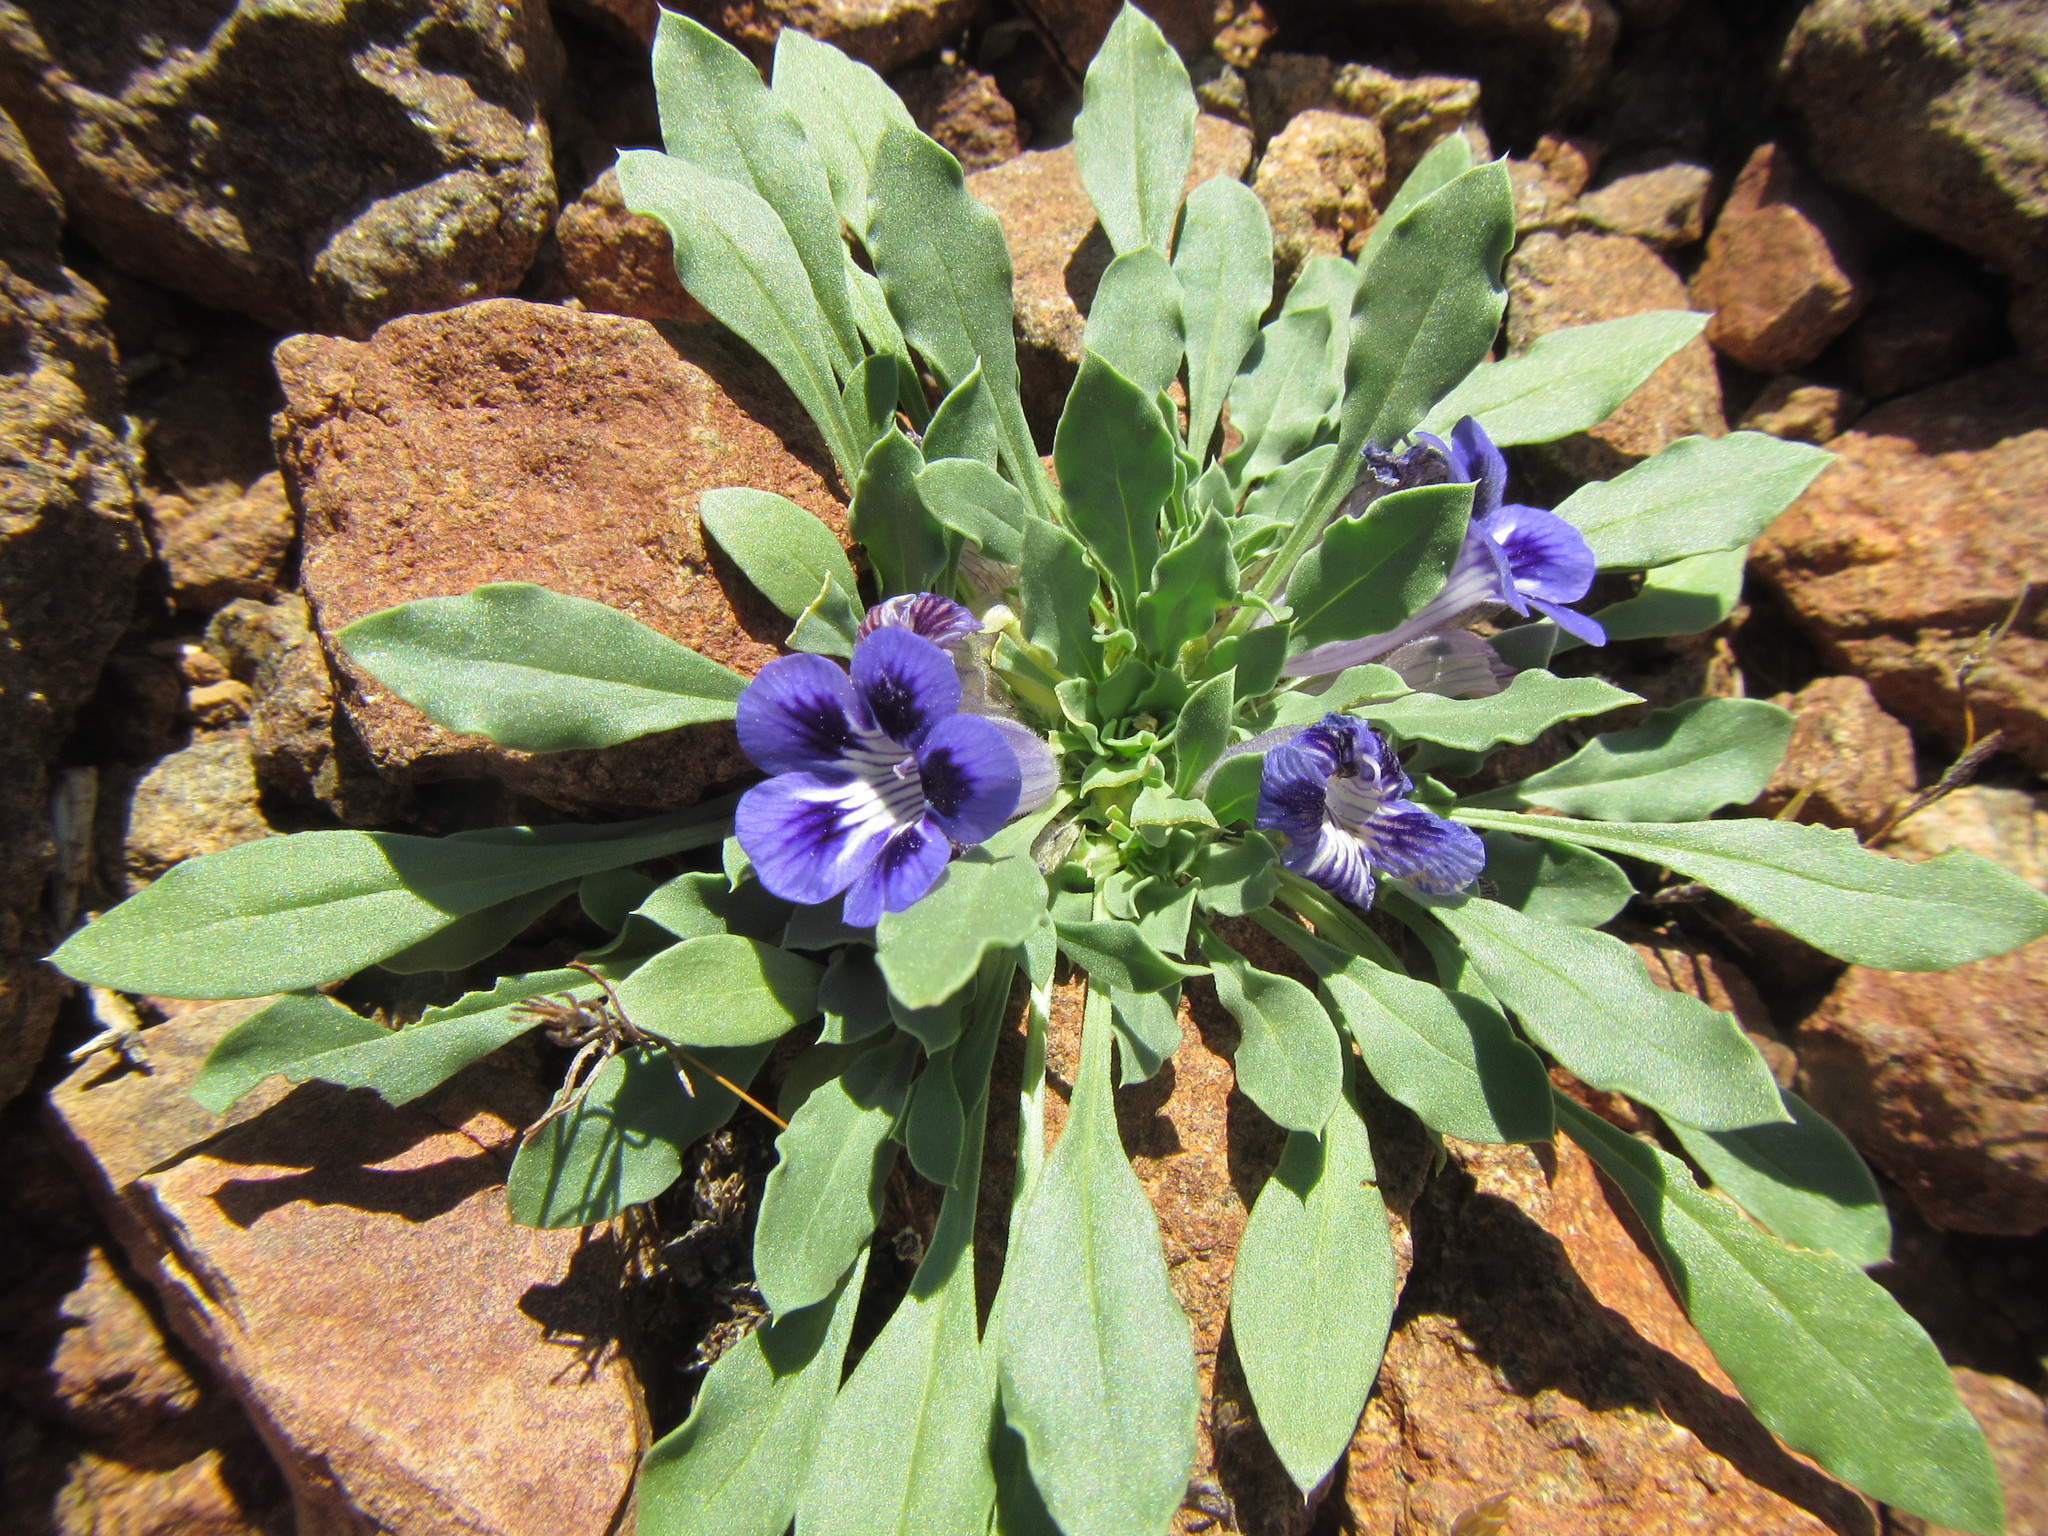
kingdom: Plantae
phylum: Tracheophyta
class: Magnoliopsida
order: Lamiales
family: Scrophulariaceae
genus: Aptosimum
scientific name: Aptosimum indivisum
